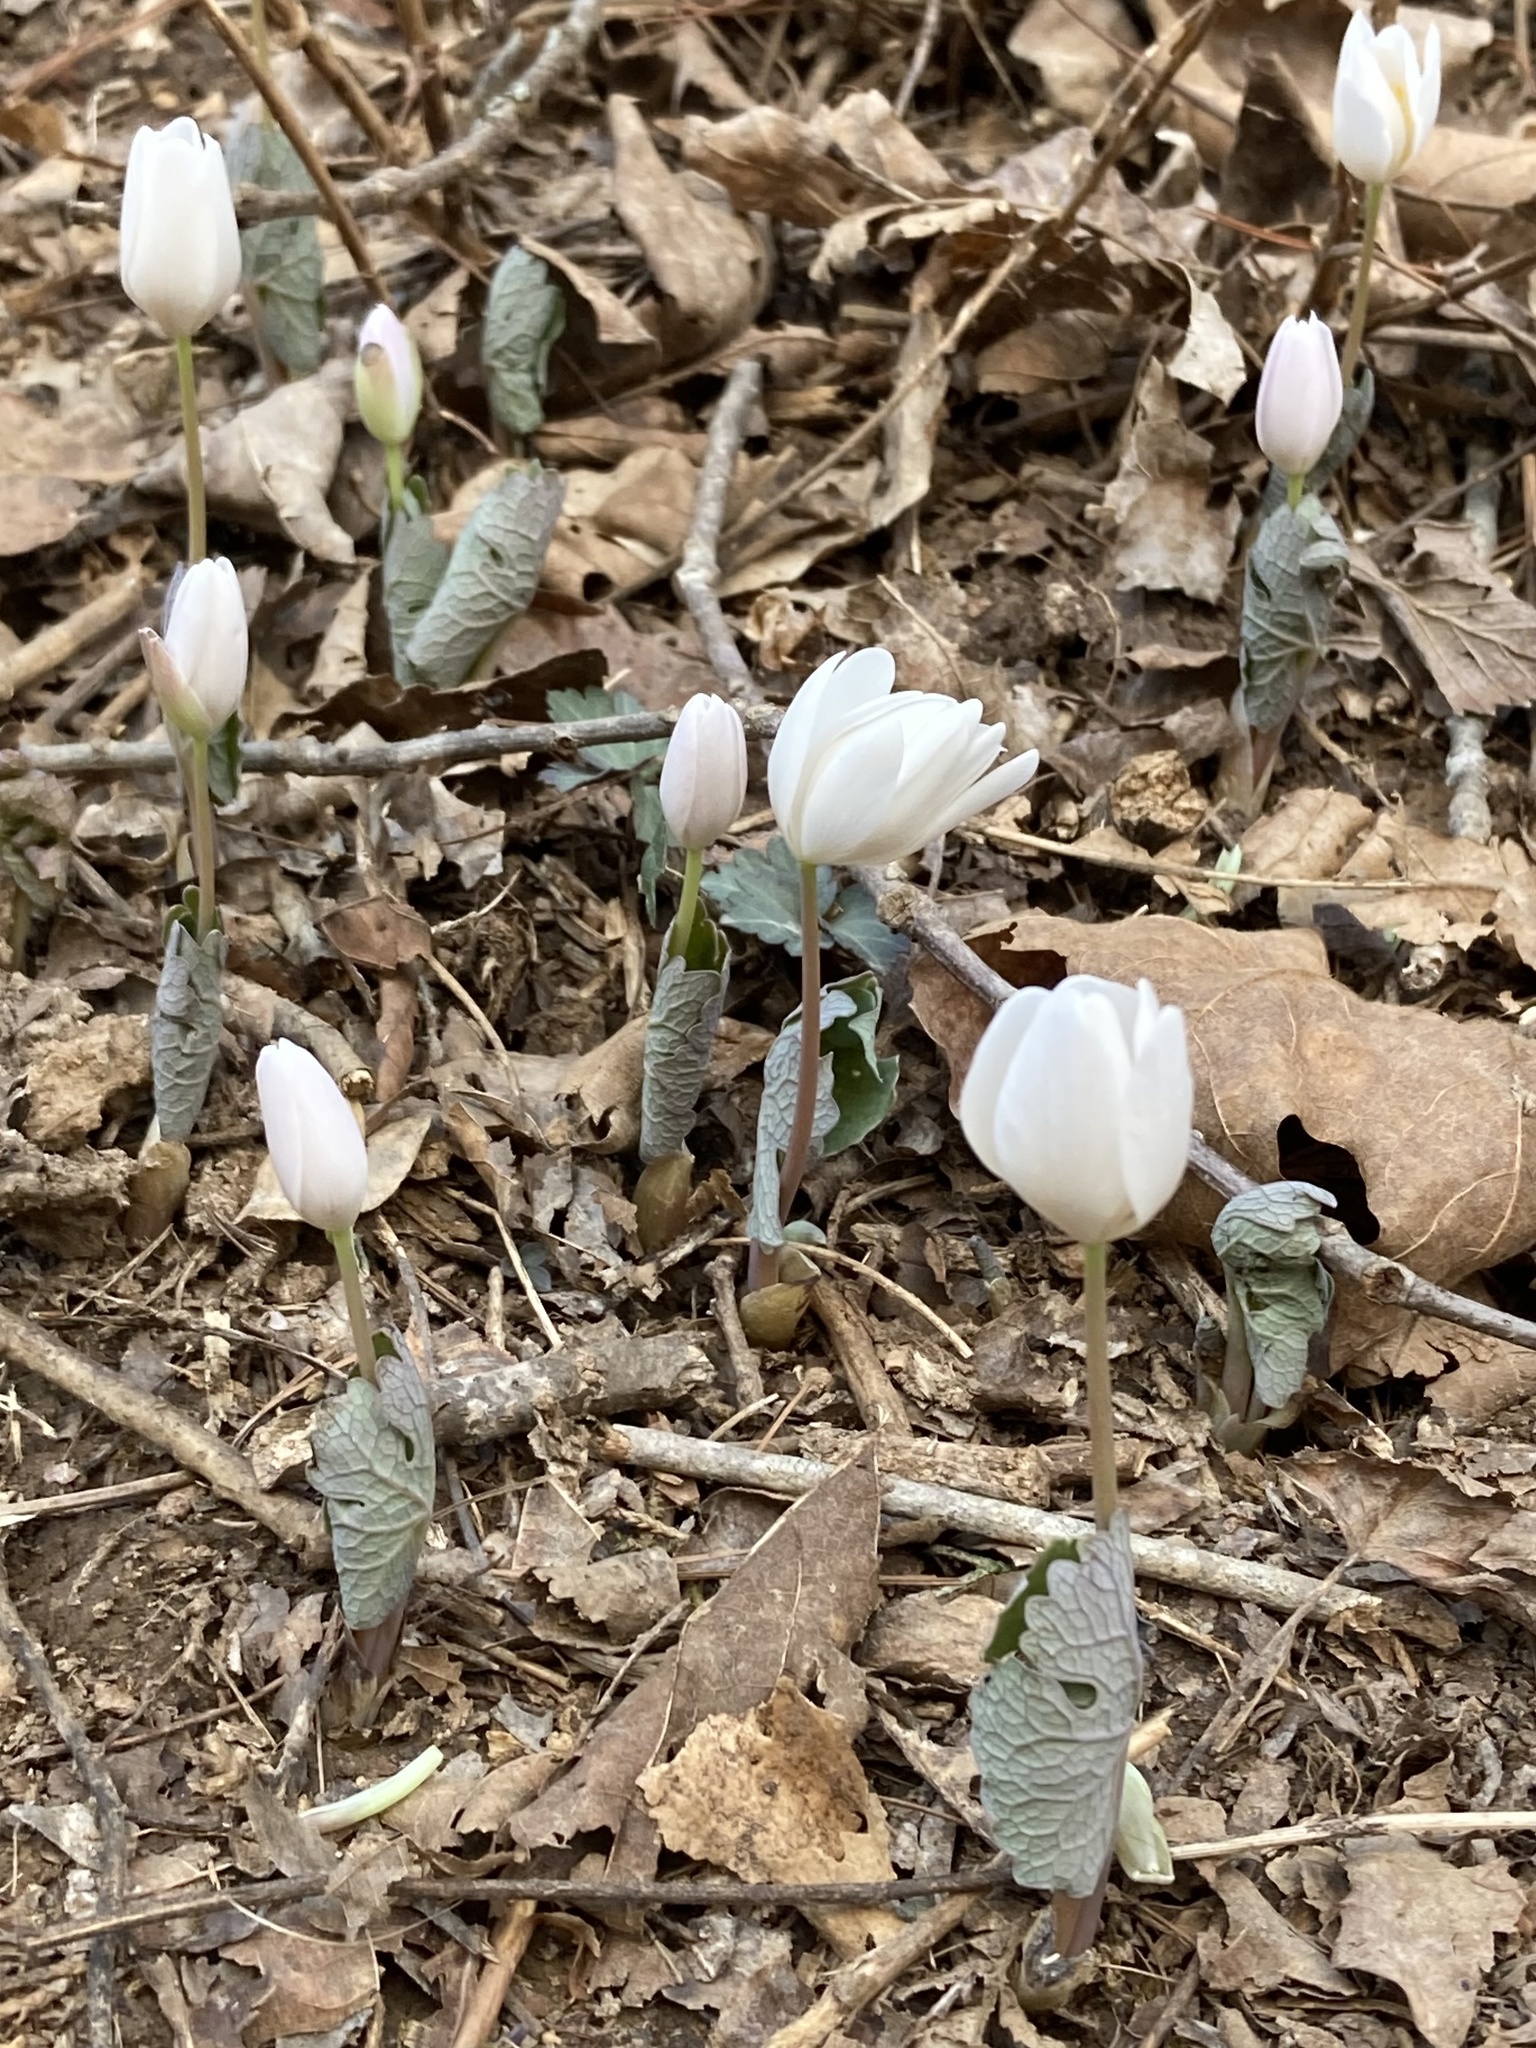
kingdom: Plantae
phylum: Tracheophyta
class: Magnoliopsida
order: Ranunculales
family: Papaveraceae
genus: Sanguinaria
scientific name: Sanguinaria canadensis
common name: Bloodroot
